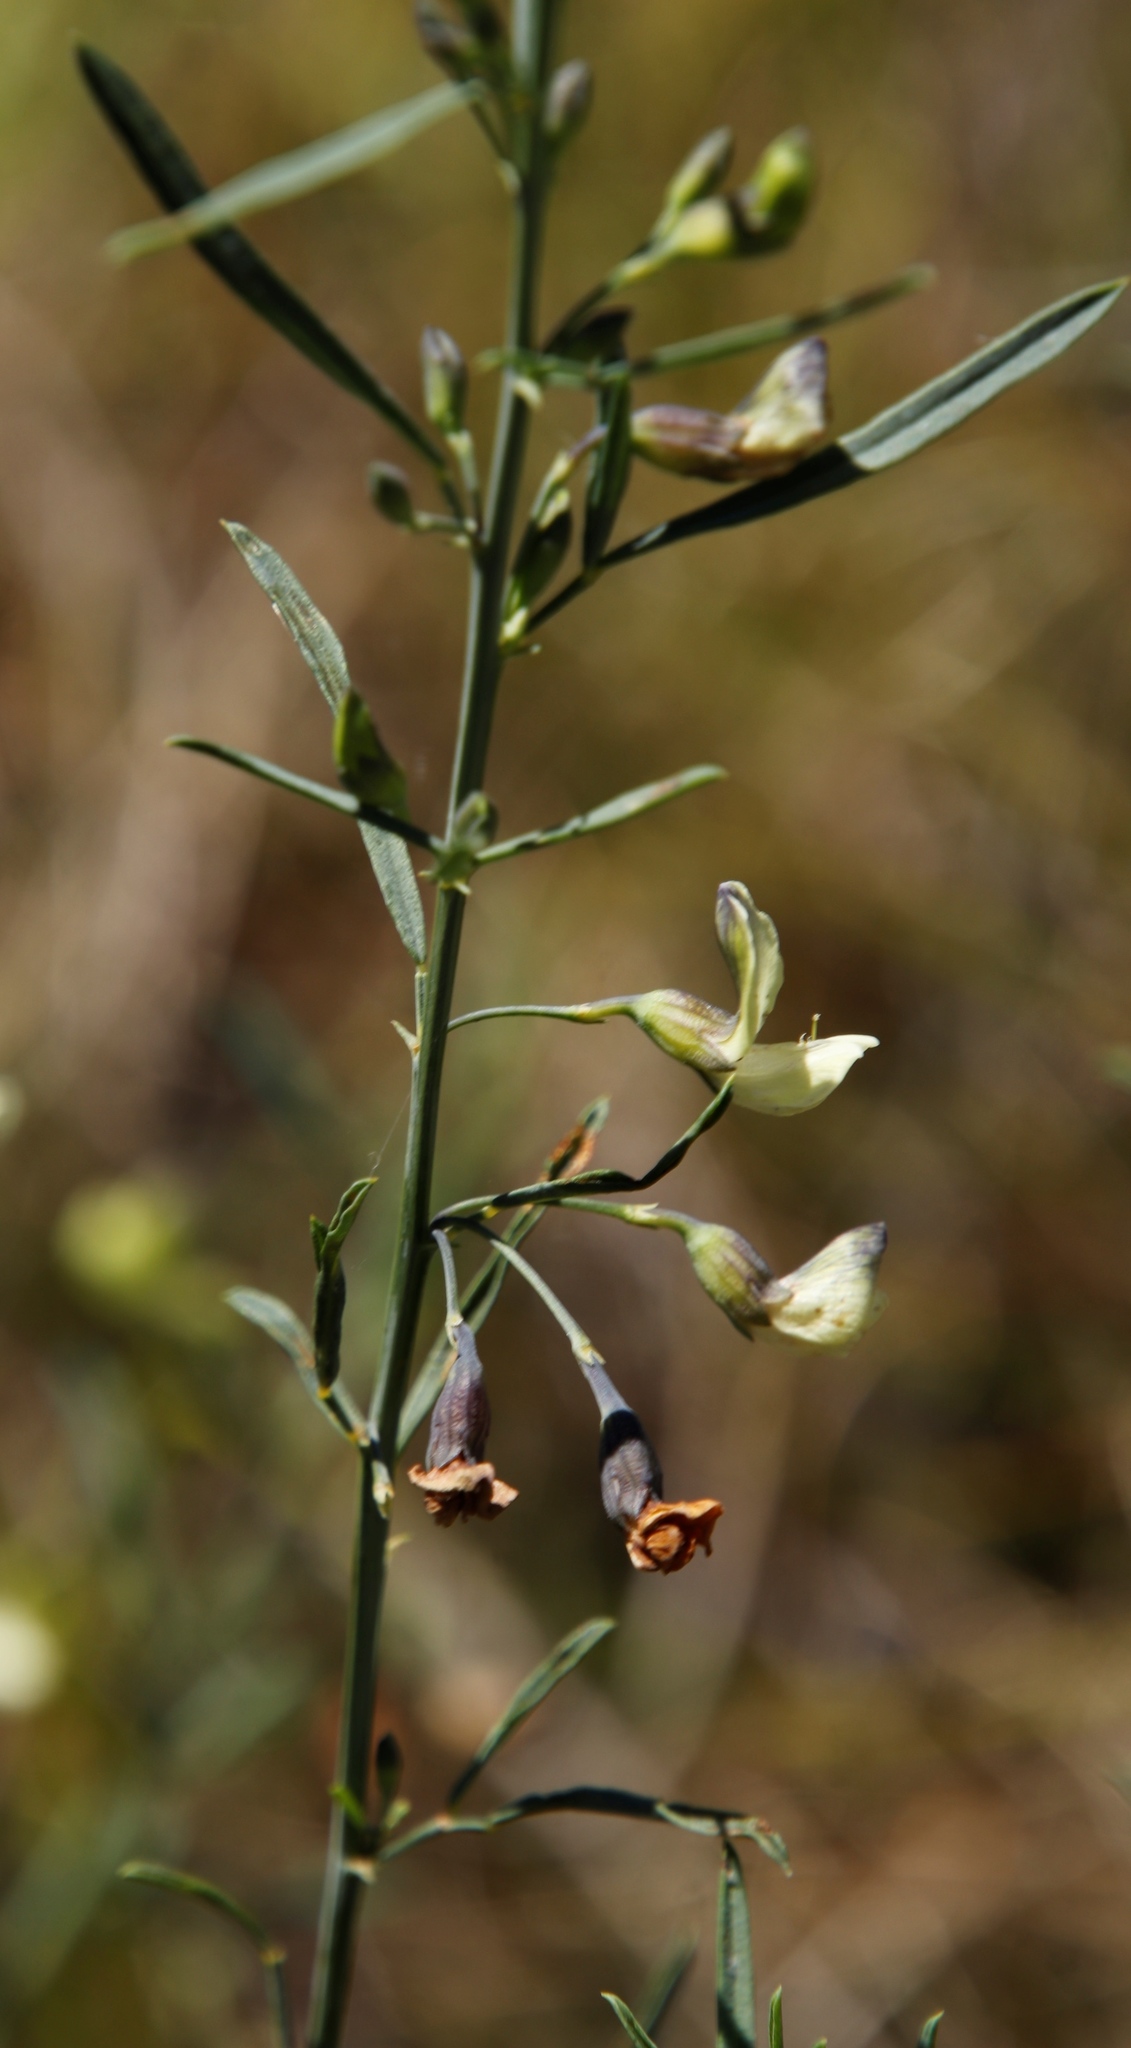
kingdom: Plantae
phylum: Tracheophyta
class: Magnoliopsida
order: Fabales
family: Fabaceae
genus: Psoralea
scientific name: Psoralea oligophylla
